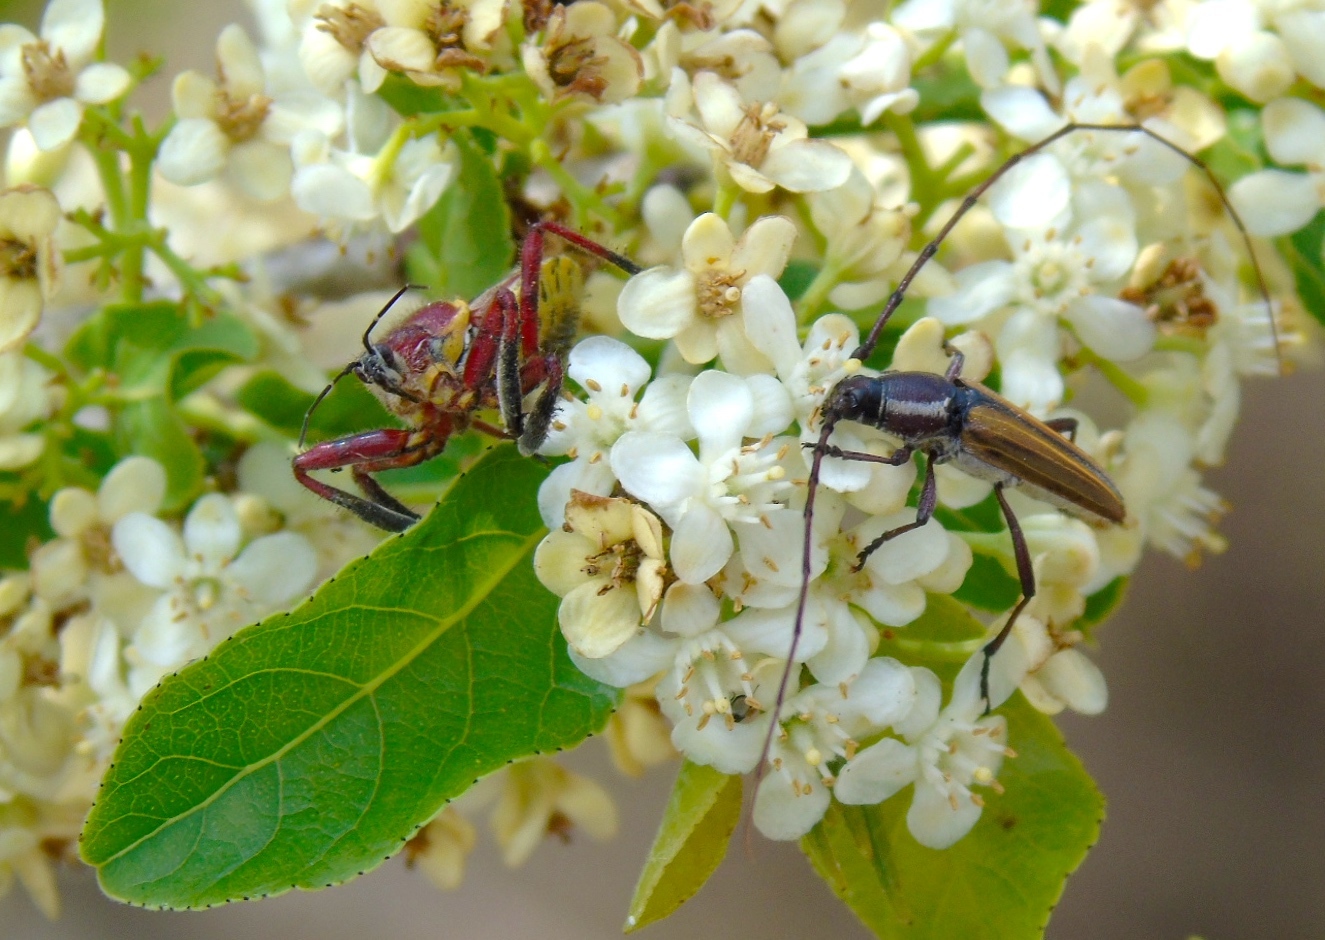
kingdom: Animalia
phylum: Arthropoda
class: Insecta
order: Coleoptera
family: Cerambycidae
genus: Sphaenothecus
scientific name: Sphaenothecus
